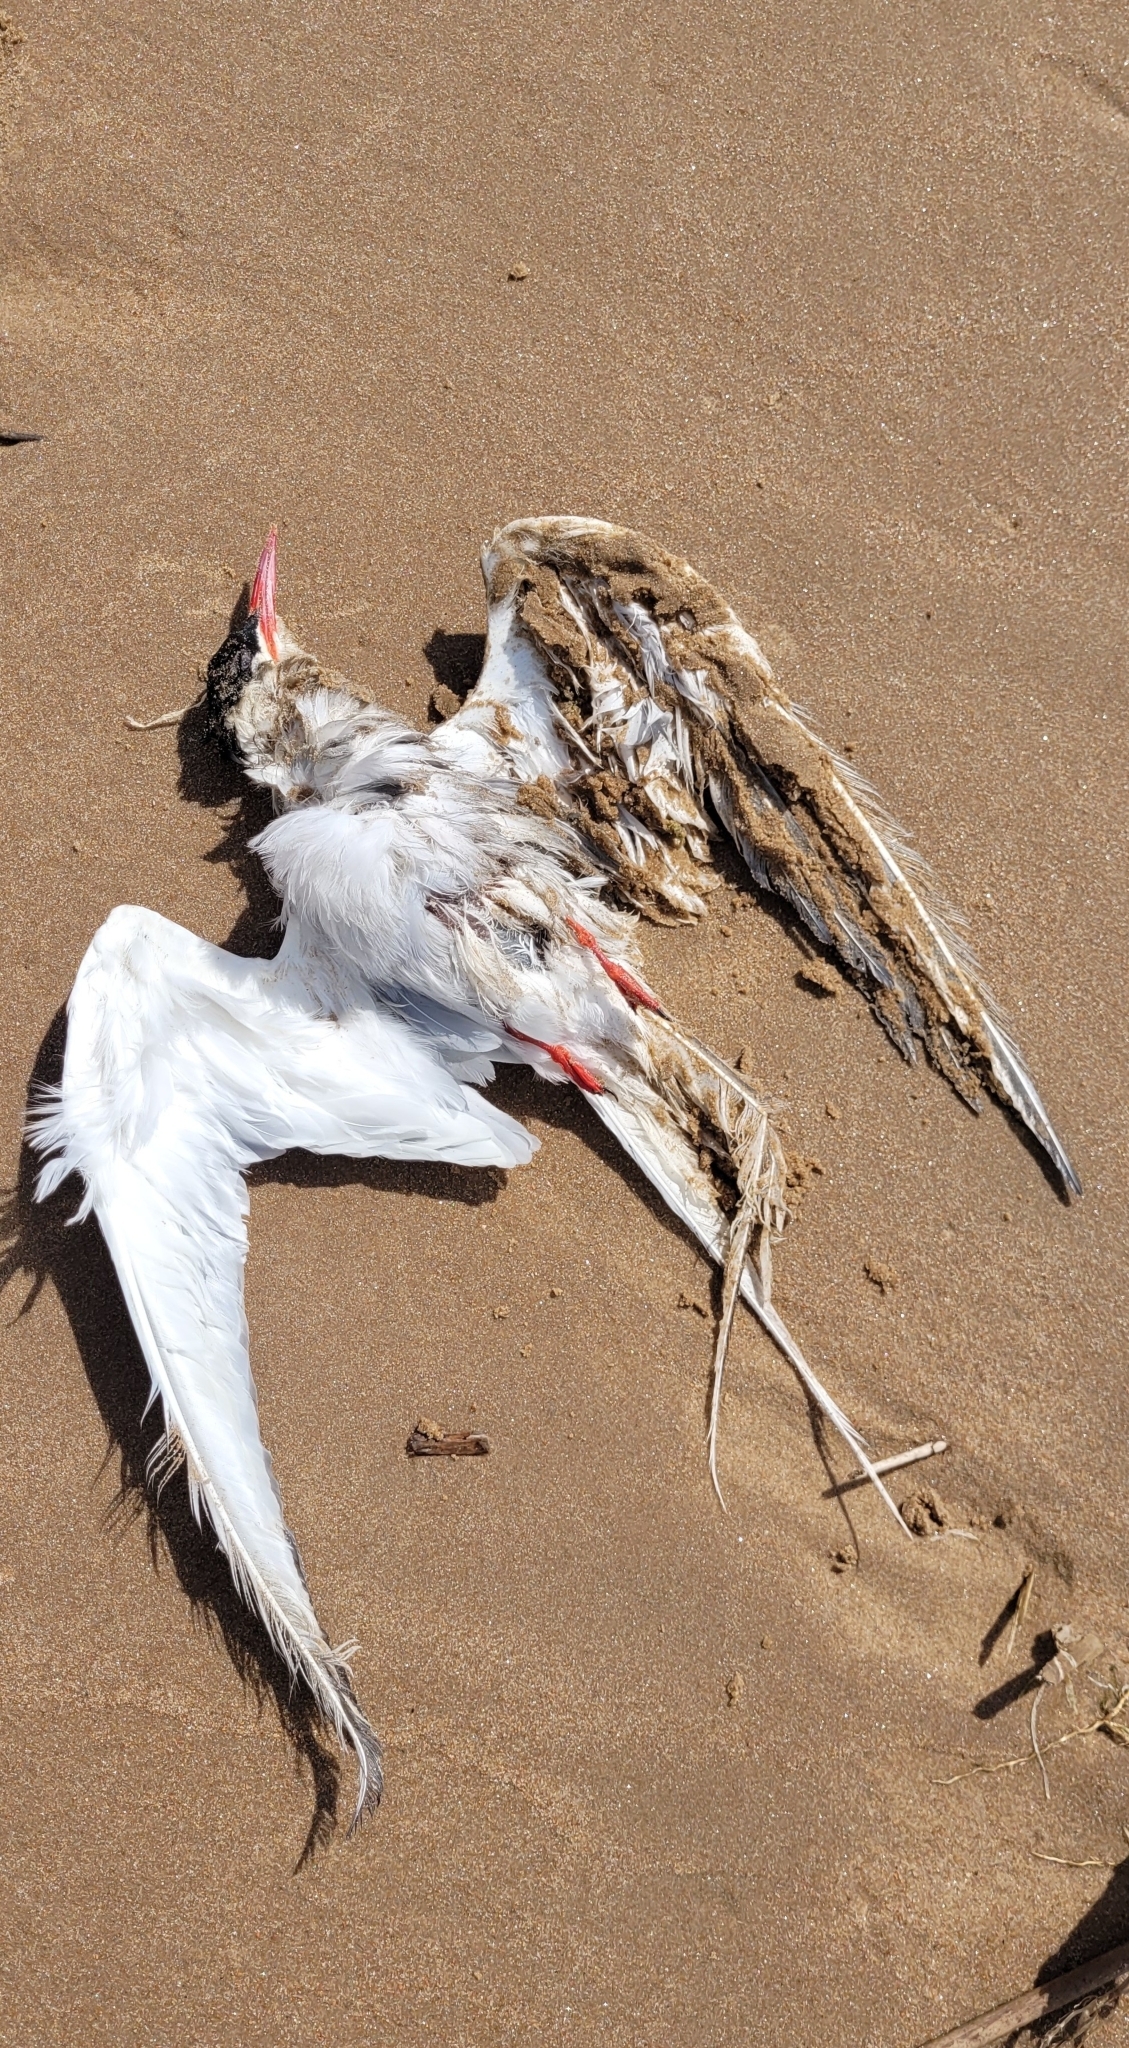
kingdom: Animalia
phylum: Chordata
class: Aves
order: Charadriiformes
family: Laridae
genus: Sterna
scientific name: Sterna paradisaea
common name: Arctic tern
